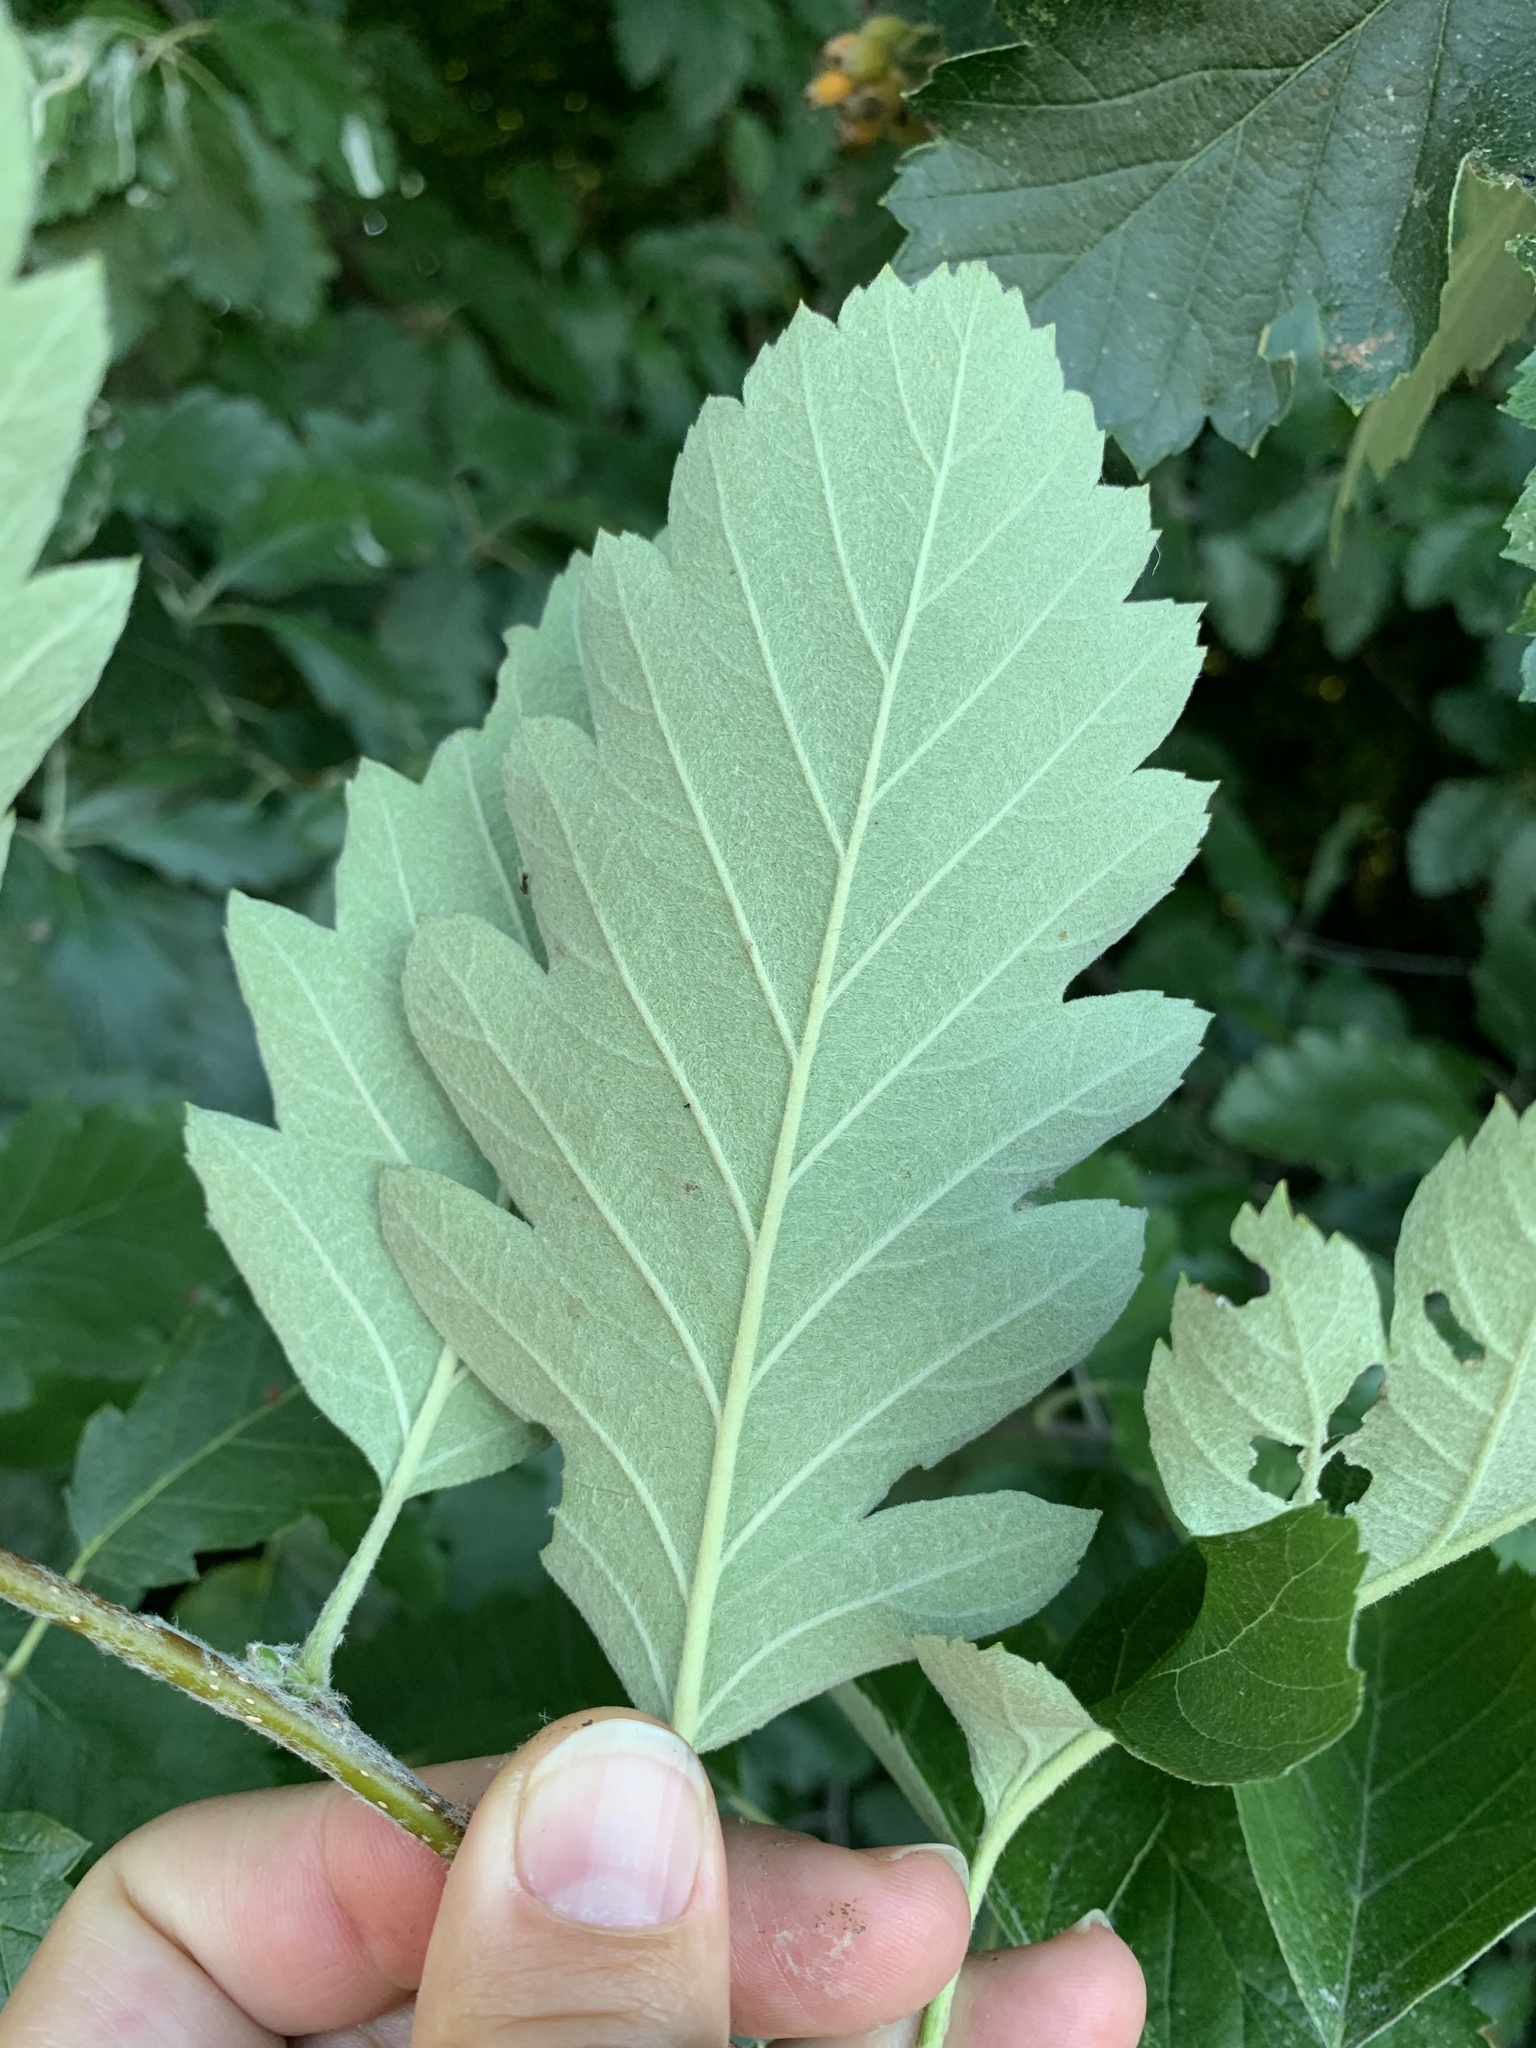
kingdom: Plantae
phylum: Tracheophyta
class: Magnoliopsida
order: Rosales
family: Rosaceae
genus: Scandosorbus
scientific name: Scandosorbus intermedia
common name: Swedish whitebeam
